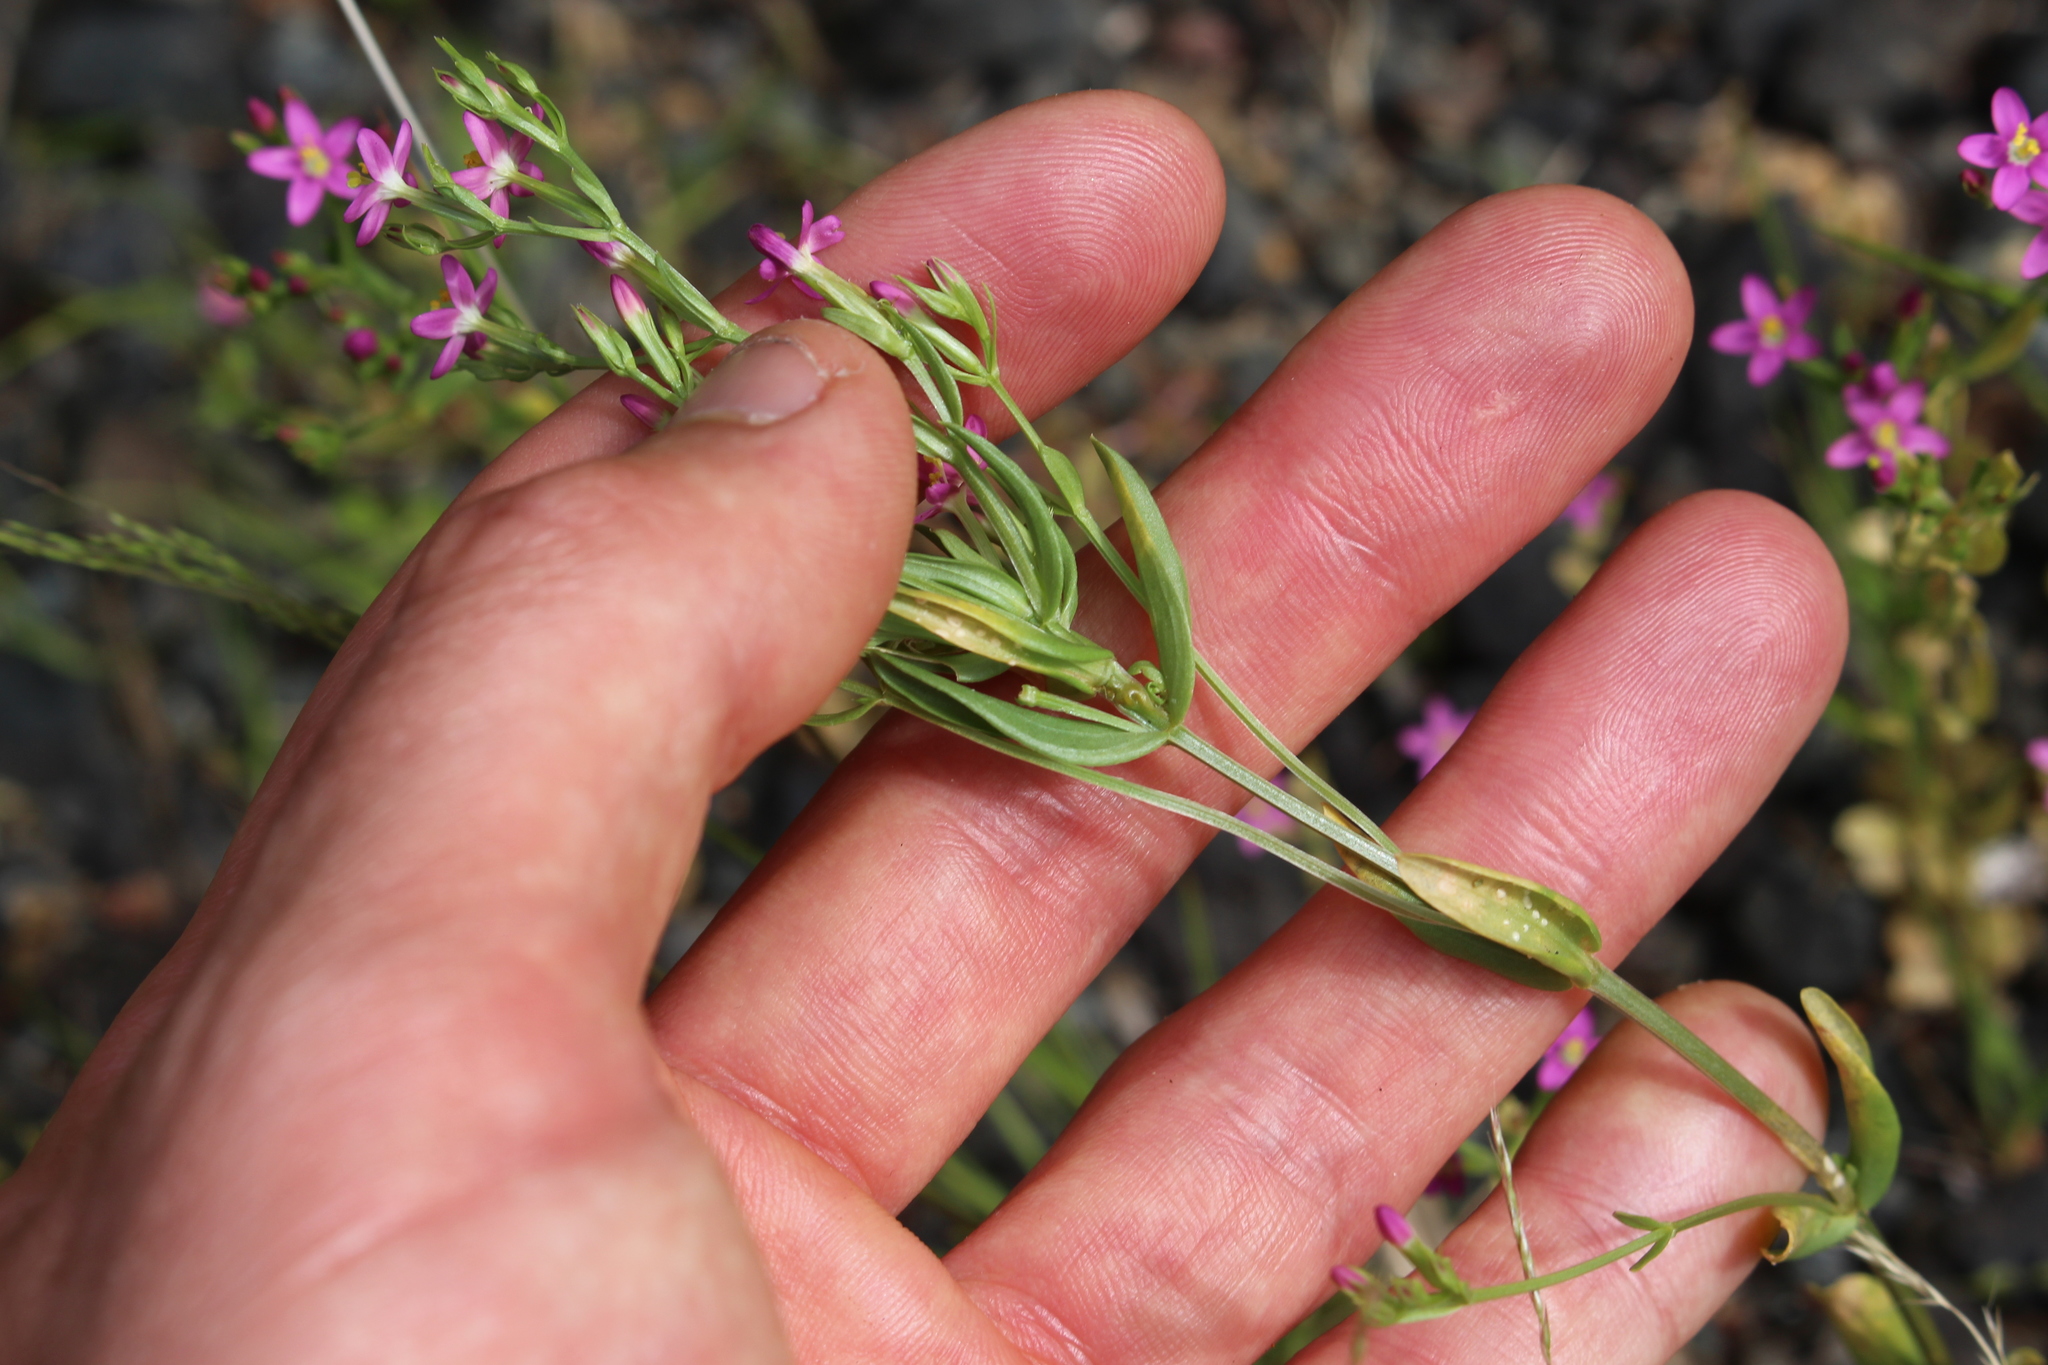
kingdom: Plantae
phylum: Tracheophyta
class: Magnoliopsida
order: Gentianales
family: Gentianaceae
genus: Centaurium
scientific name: Centaurium erythraea
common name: Common centaury
